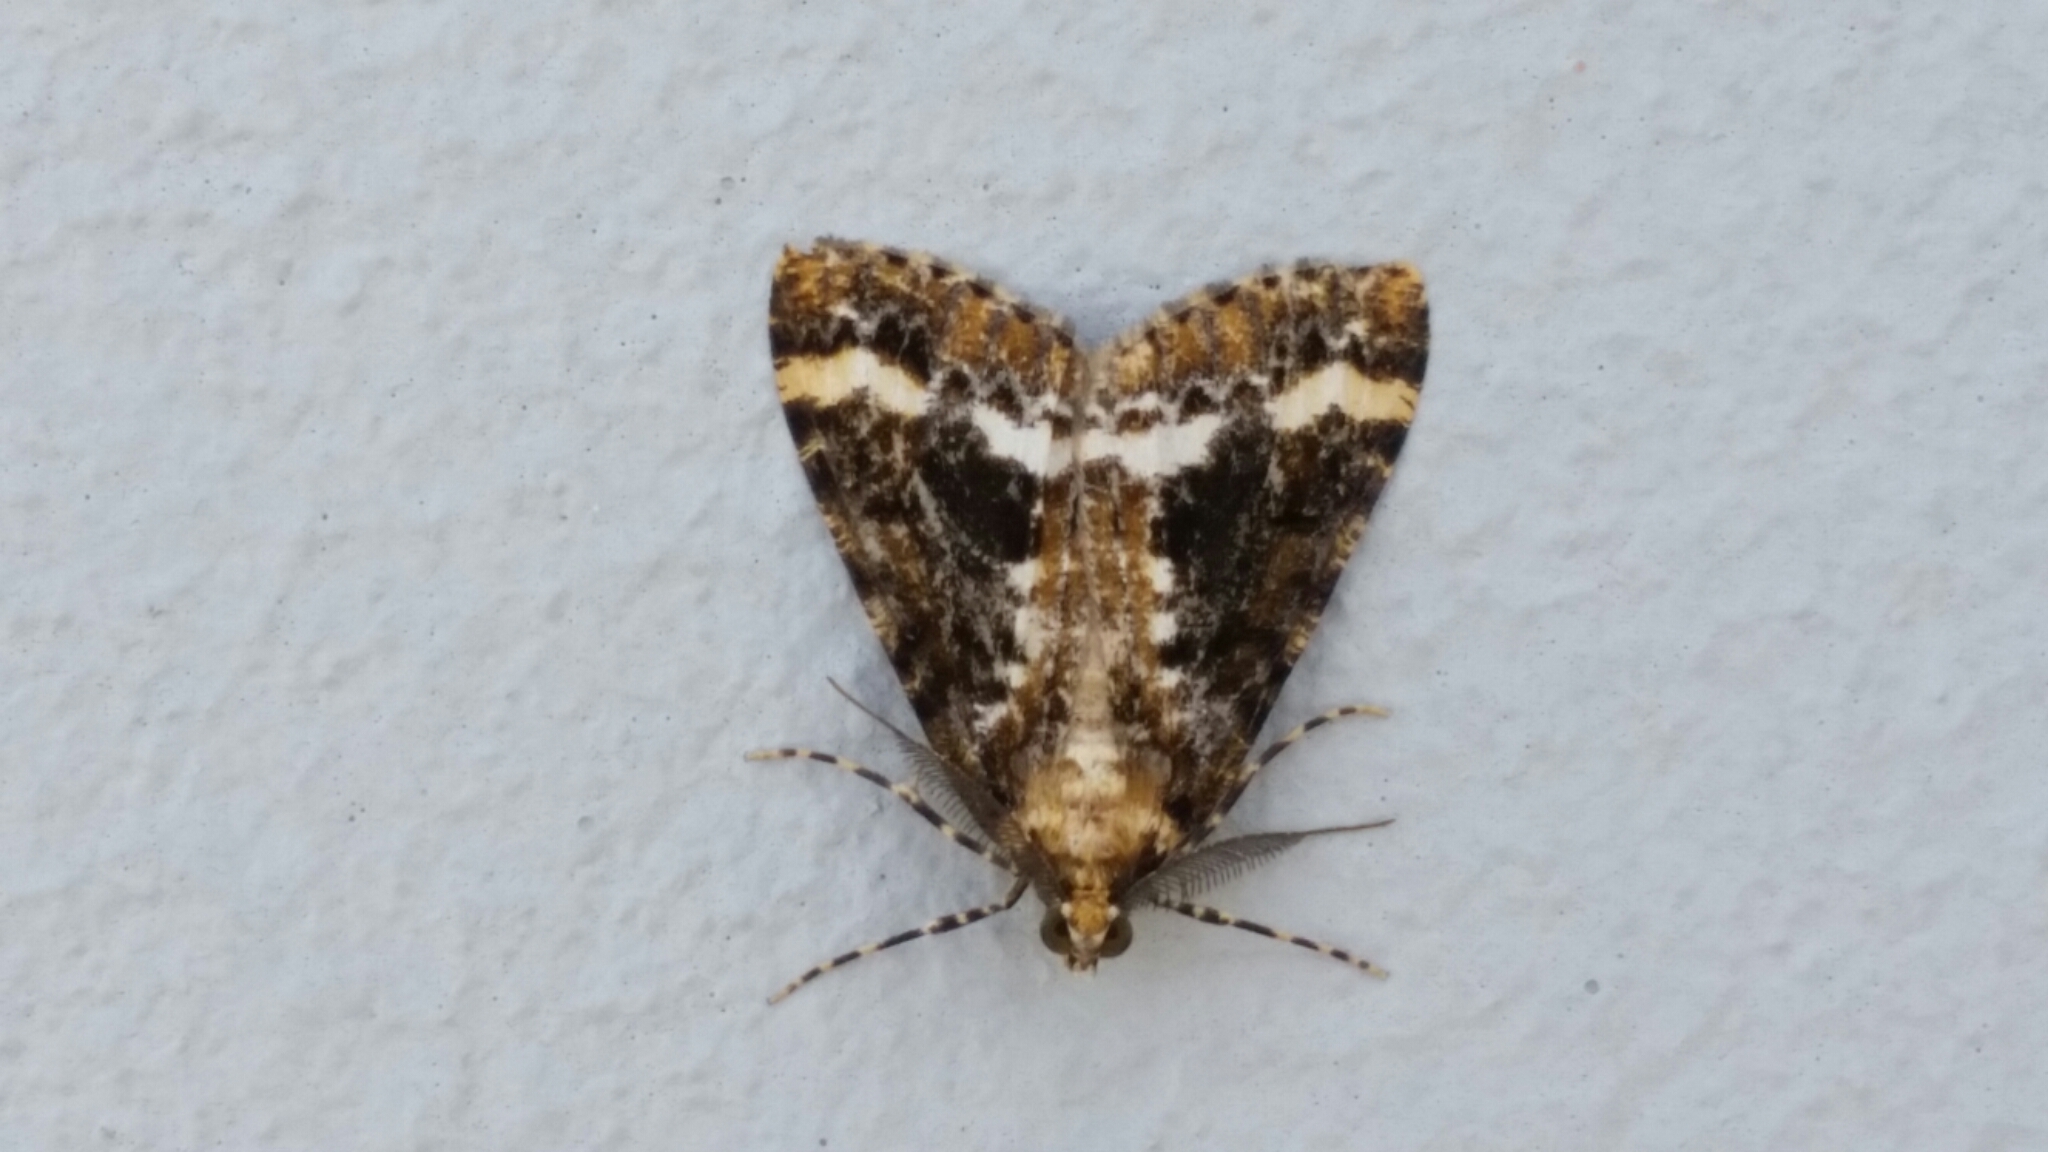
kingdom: Animalia
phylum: Arthropoda
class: Insecta
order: Lepidoptera
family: Geometridae
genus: Pseudocoremia
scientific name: Pseudocoremia leucelaea
